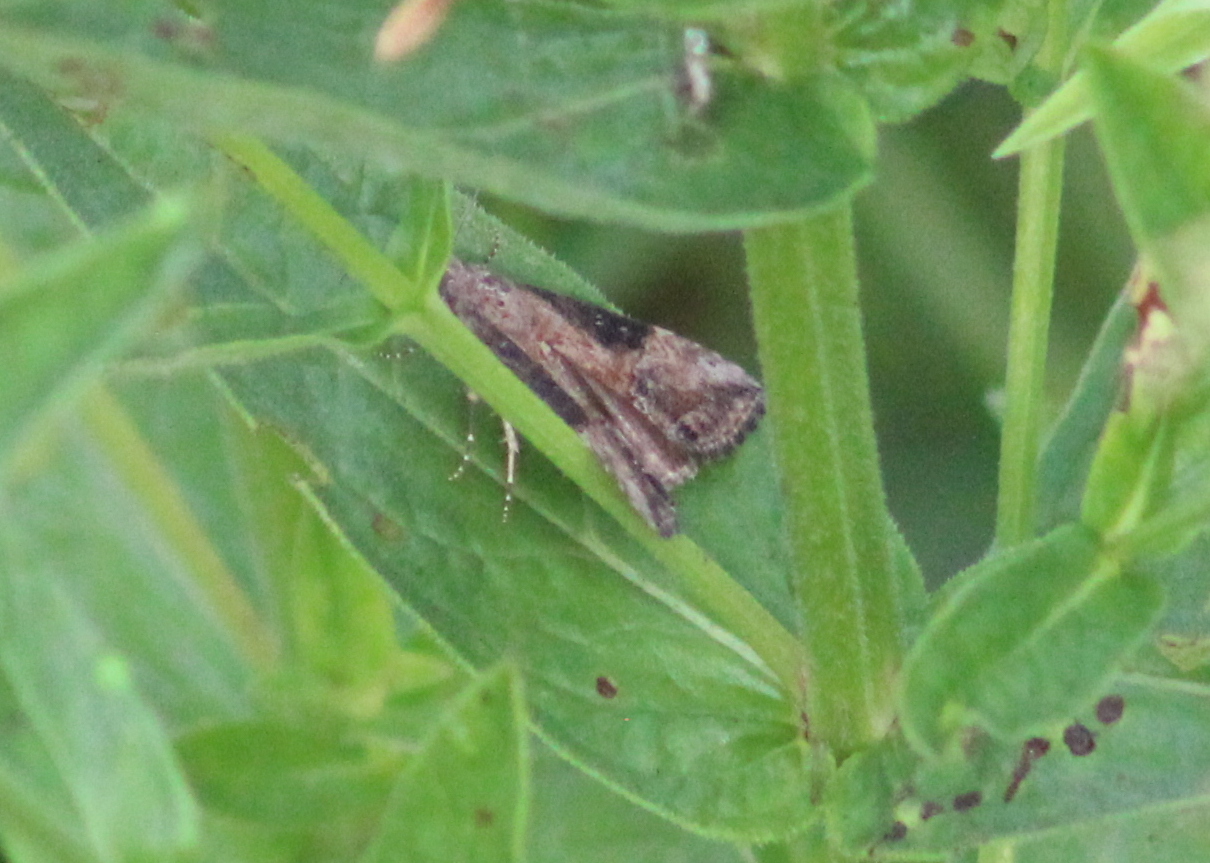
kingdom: Animalia
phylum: Arthropoda
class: Insecta
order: Lepidoptera
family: Erebidae
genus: Hypena
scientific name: Hypena scabra
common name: Green cloverworm
